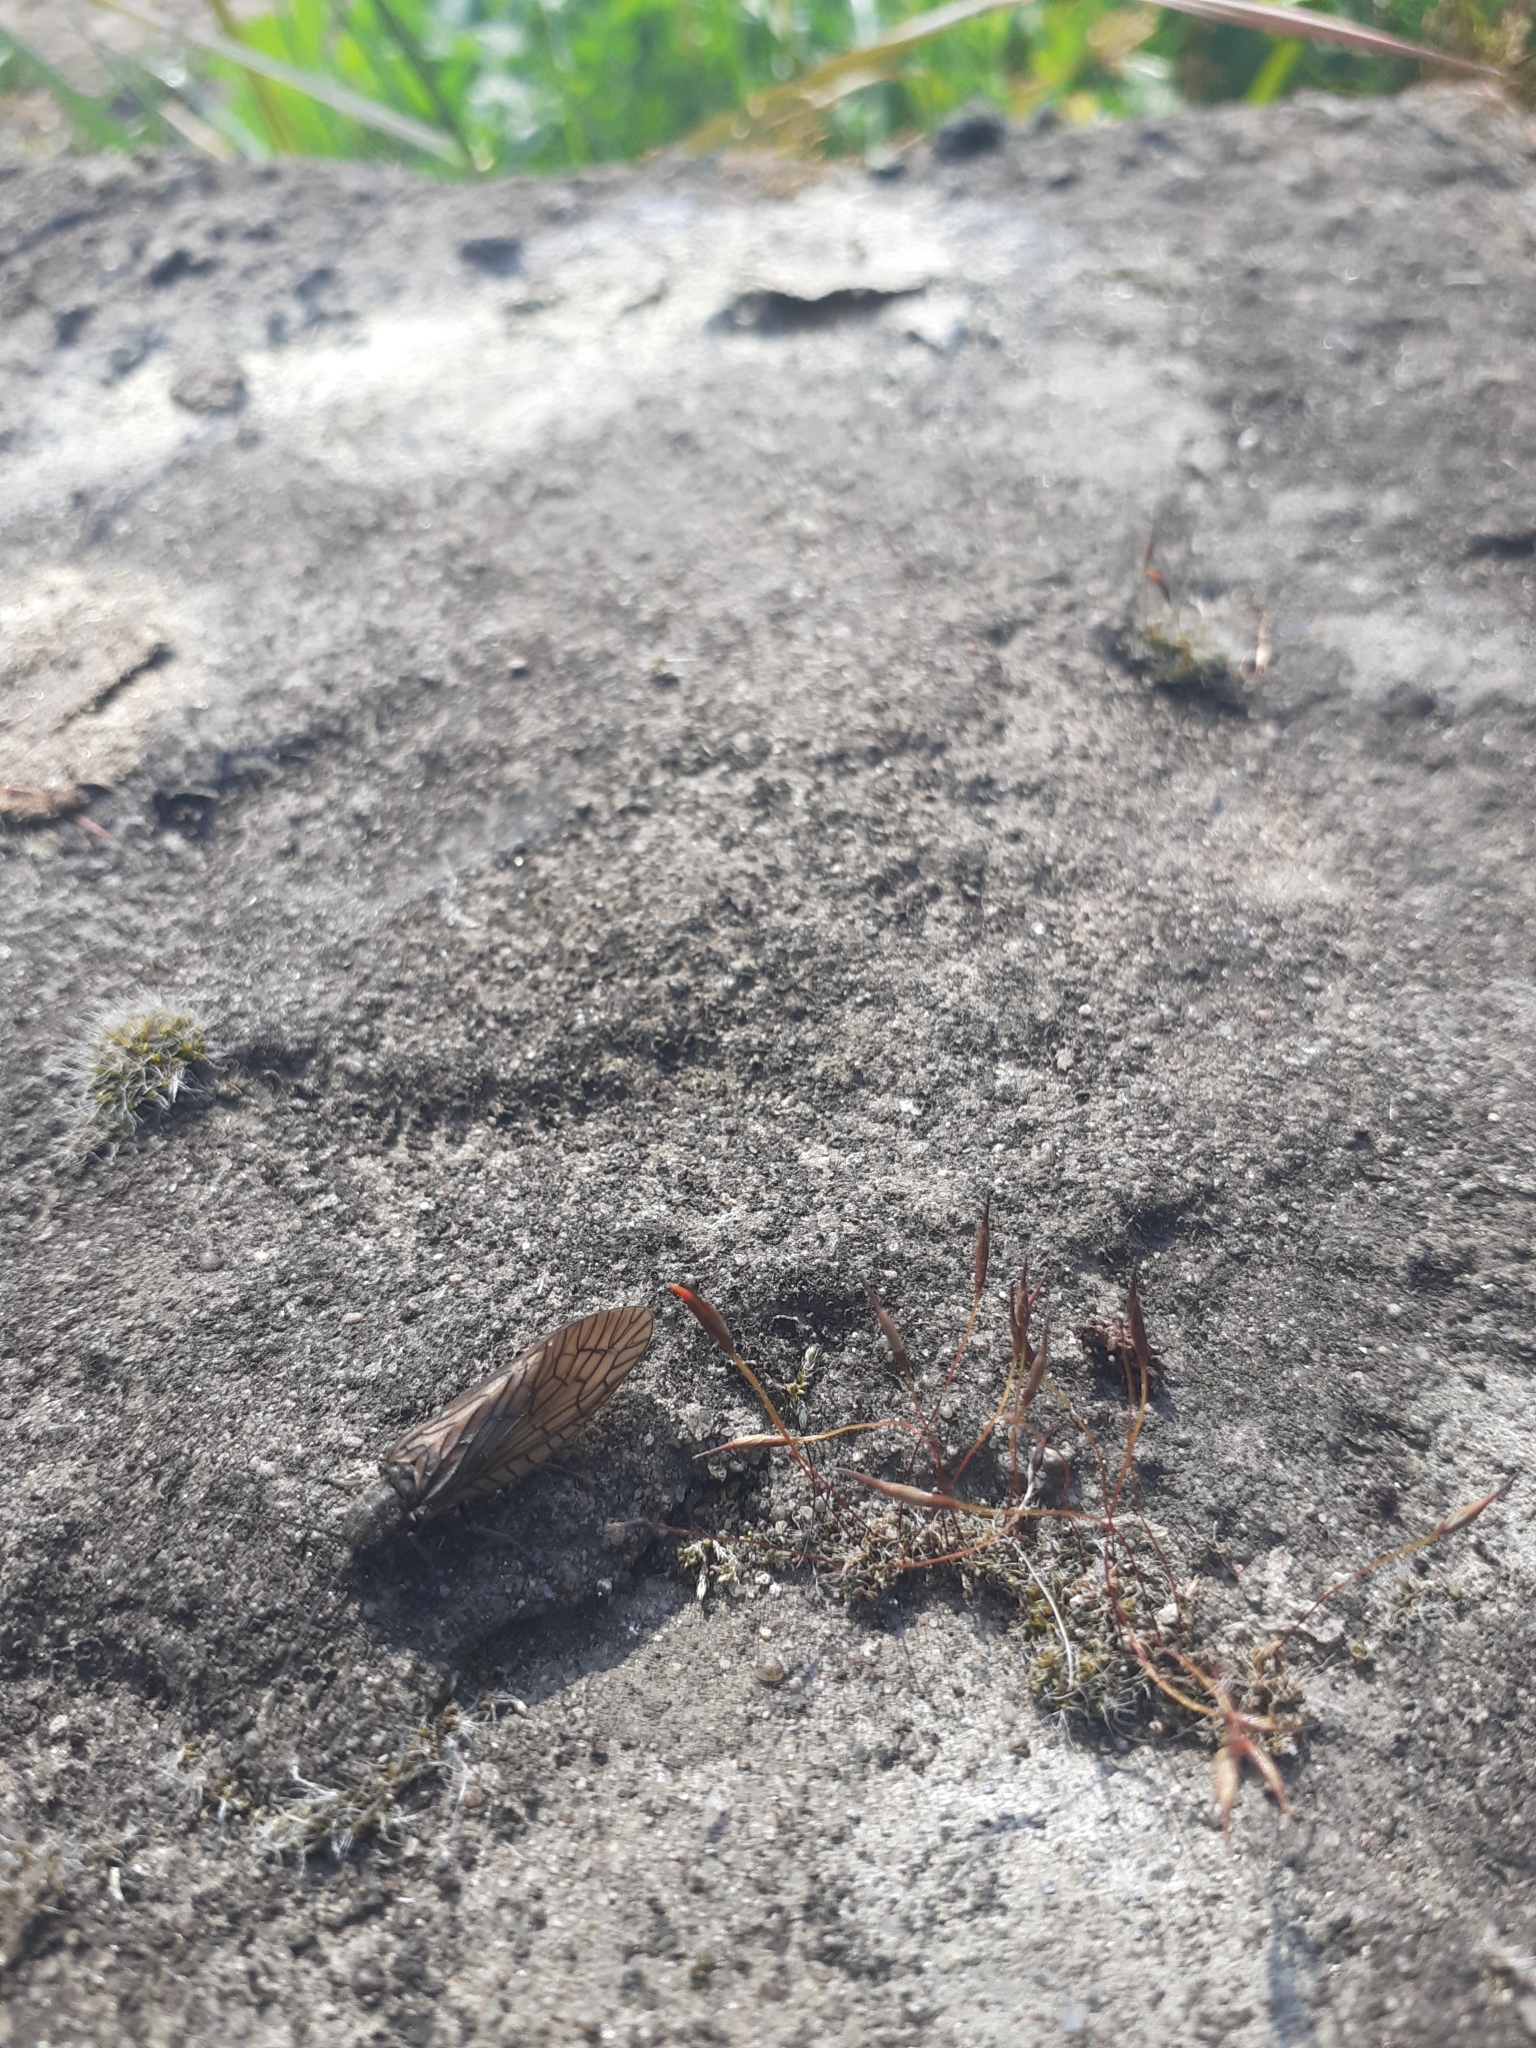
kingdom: Animalia
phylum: Arthropoda
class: Insecta
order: Megaloptera
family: Sialidae
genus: Sialis
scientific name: Sialis
